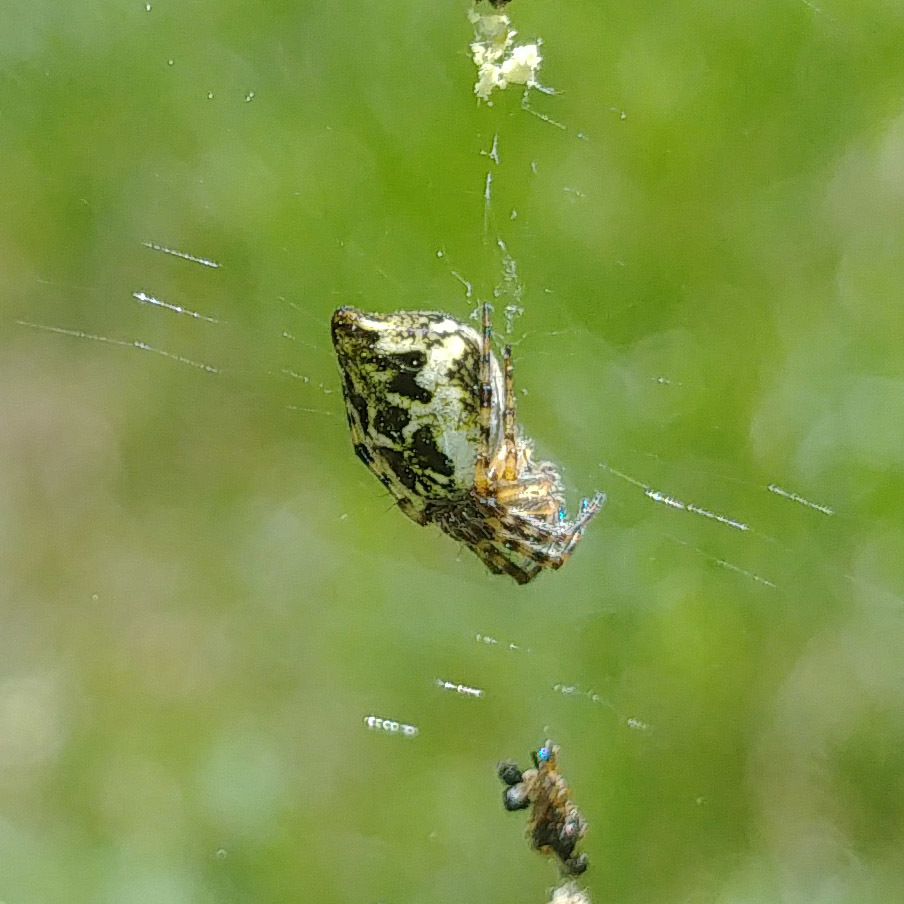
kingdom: Animalia
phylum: Arthropoda
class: Arachnida
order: Araneae
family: Araneidae
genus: Cyclosa
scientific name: Cyclosa conica
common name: Conical trashline orbweaver
